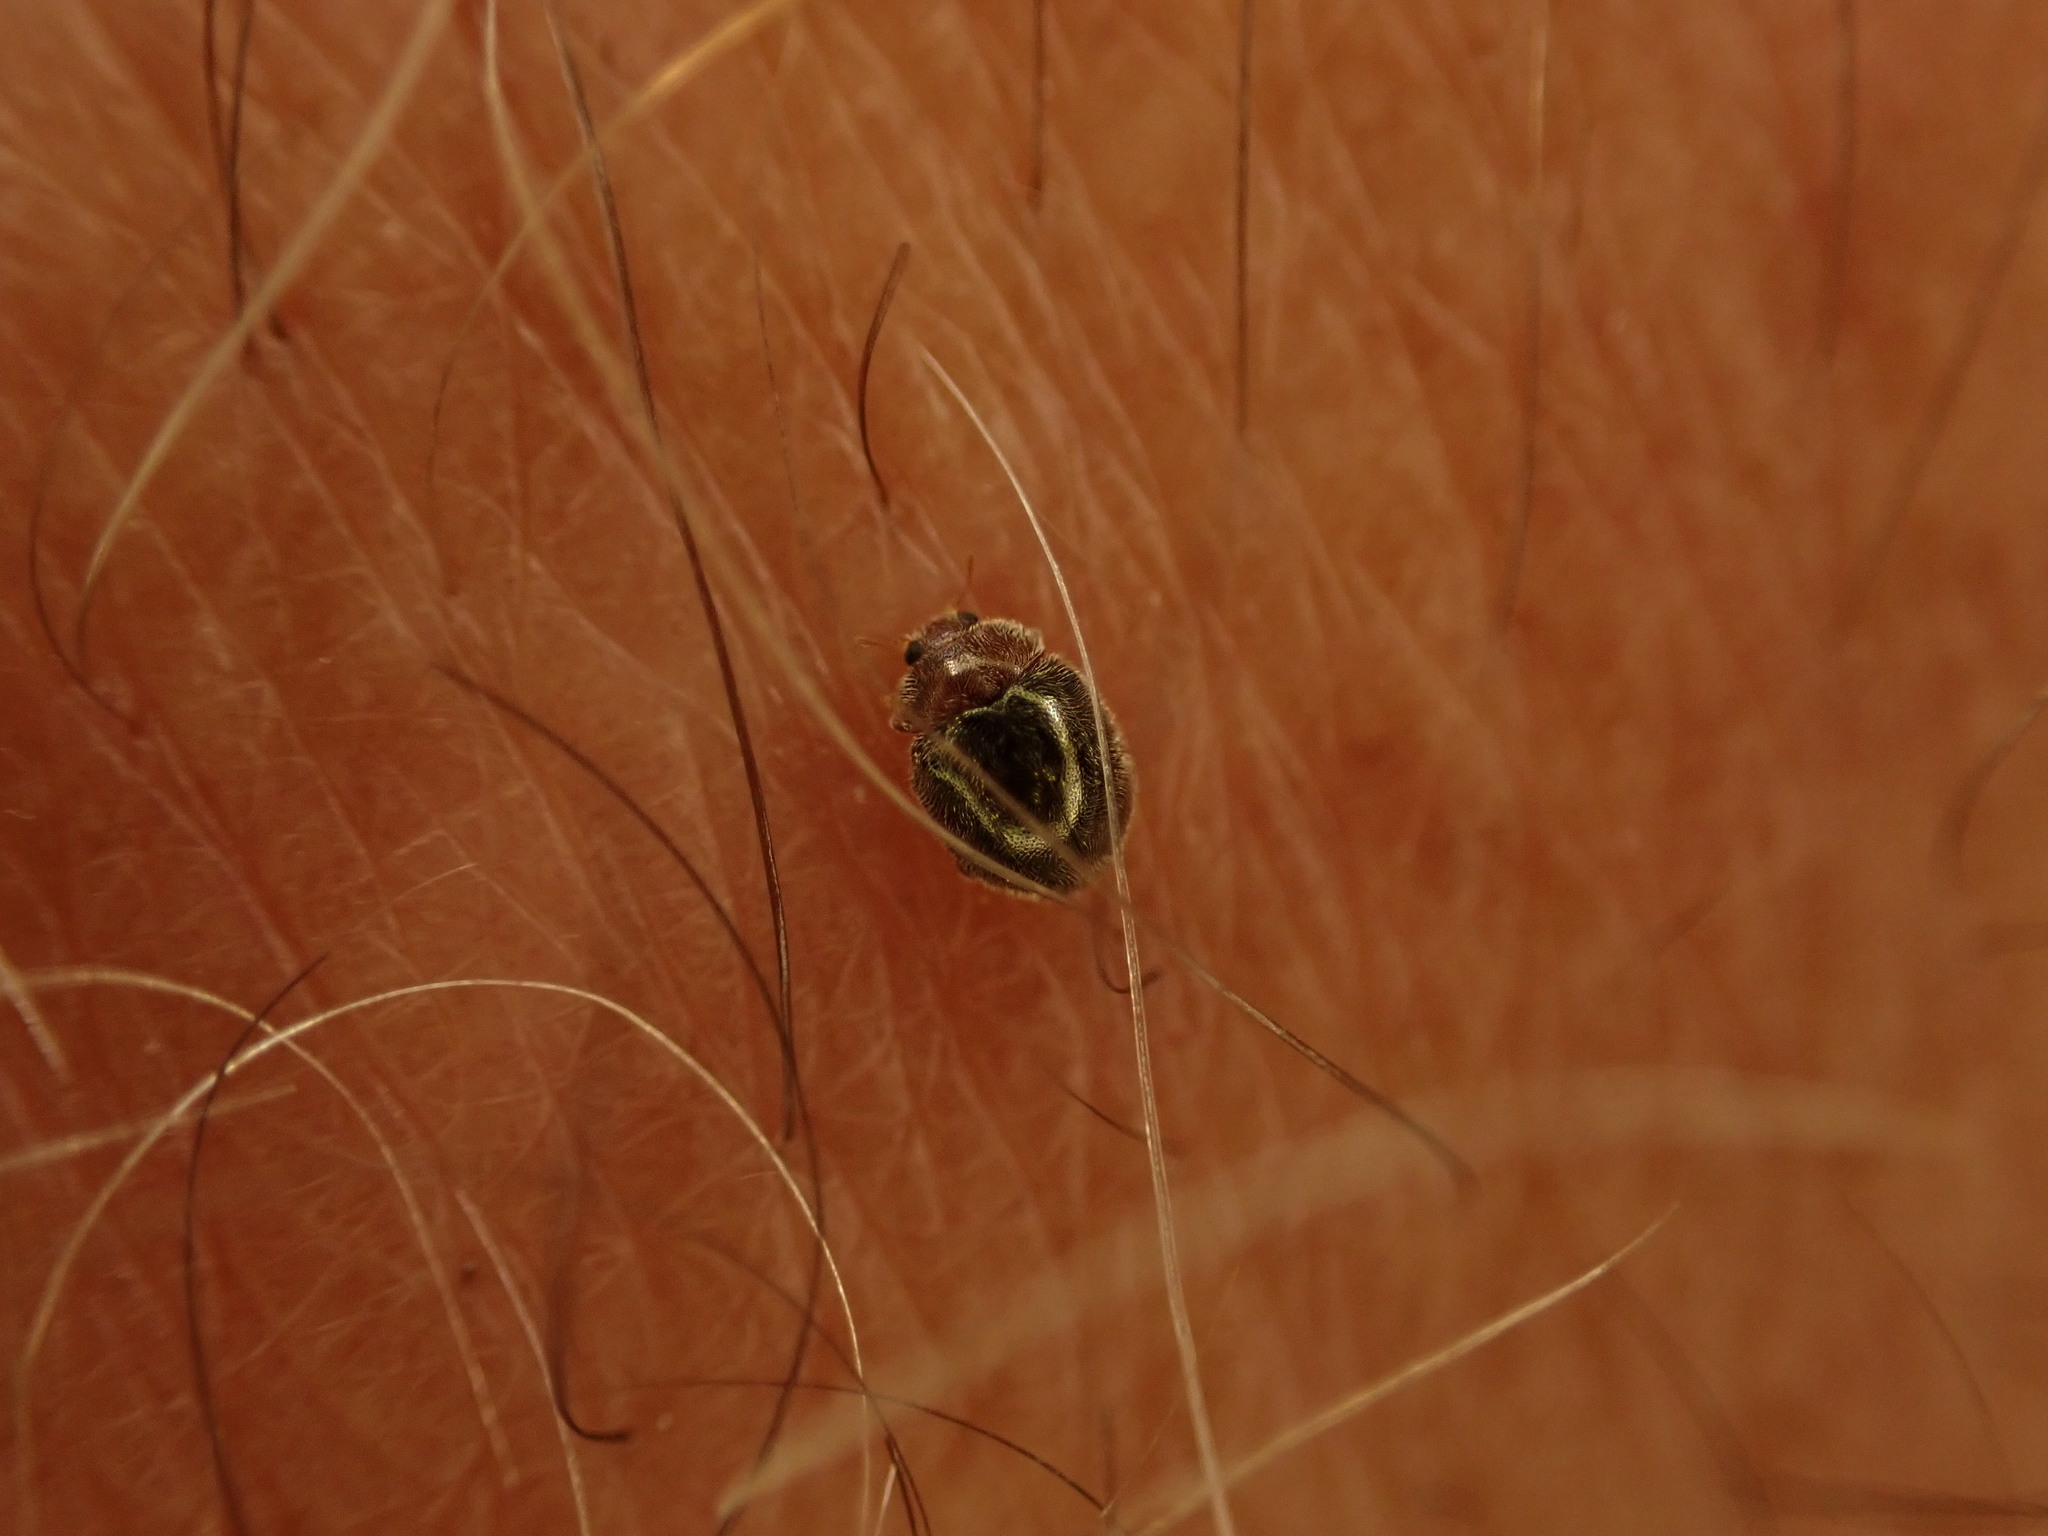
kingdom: Animalia
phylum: Arthropoda
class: Insecta
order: Coleoptera
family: Coccinellidae
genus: Rhyzobius
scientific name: Rhyzobius lophanthae
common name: Scale-eating ladybird beetle
